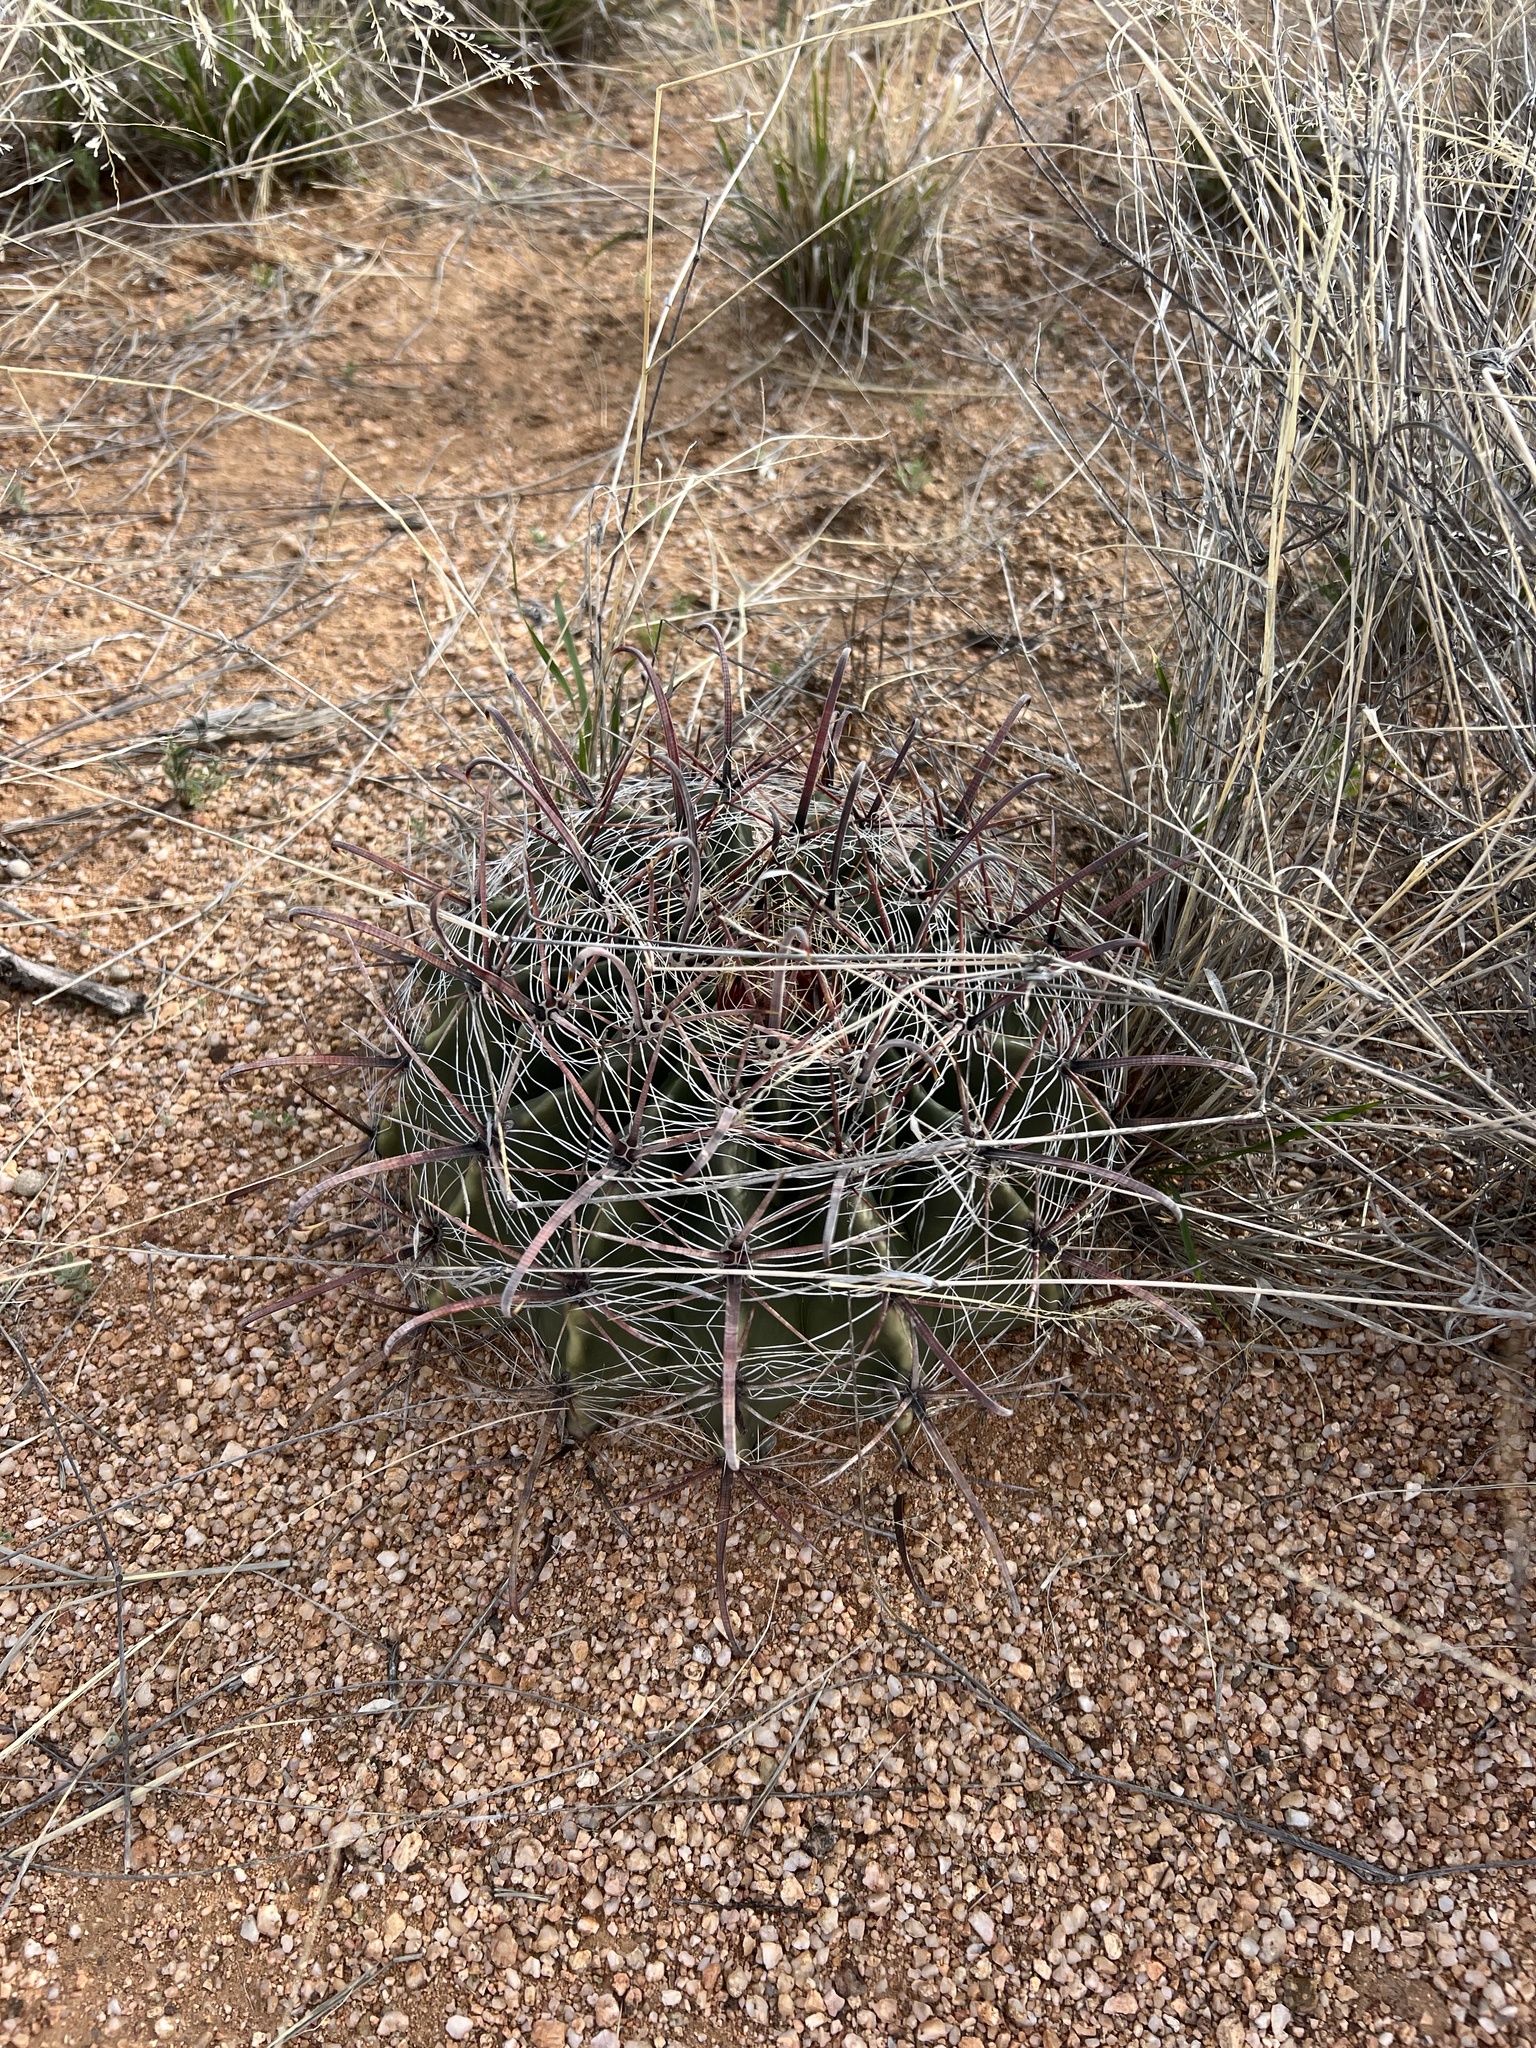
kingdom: Plantae
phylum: Tracheophyta
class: Magnoliopsida
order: Caryophyllales
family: Cactaceae
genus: Ferocactus
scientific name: Ferocactus wislizeni
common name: Candy barrel cactus
